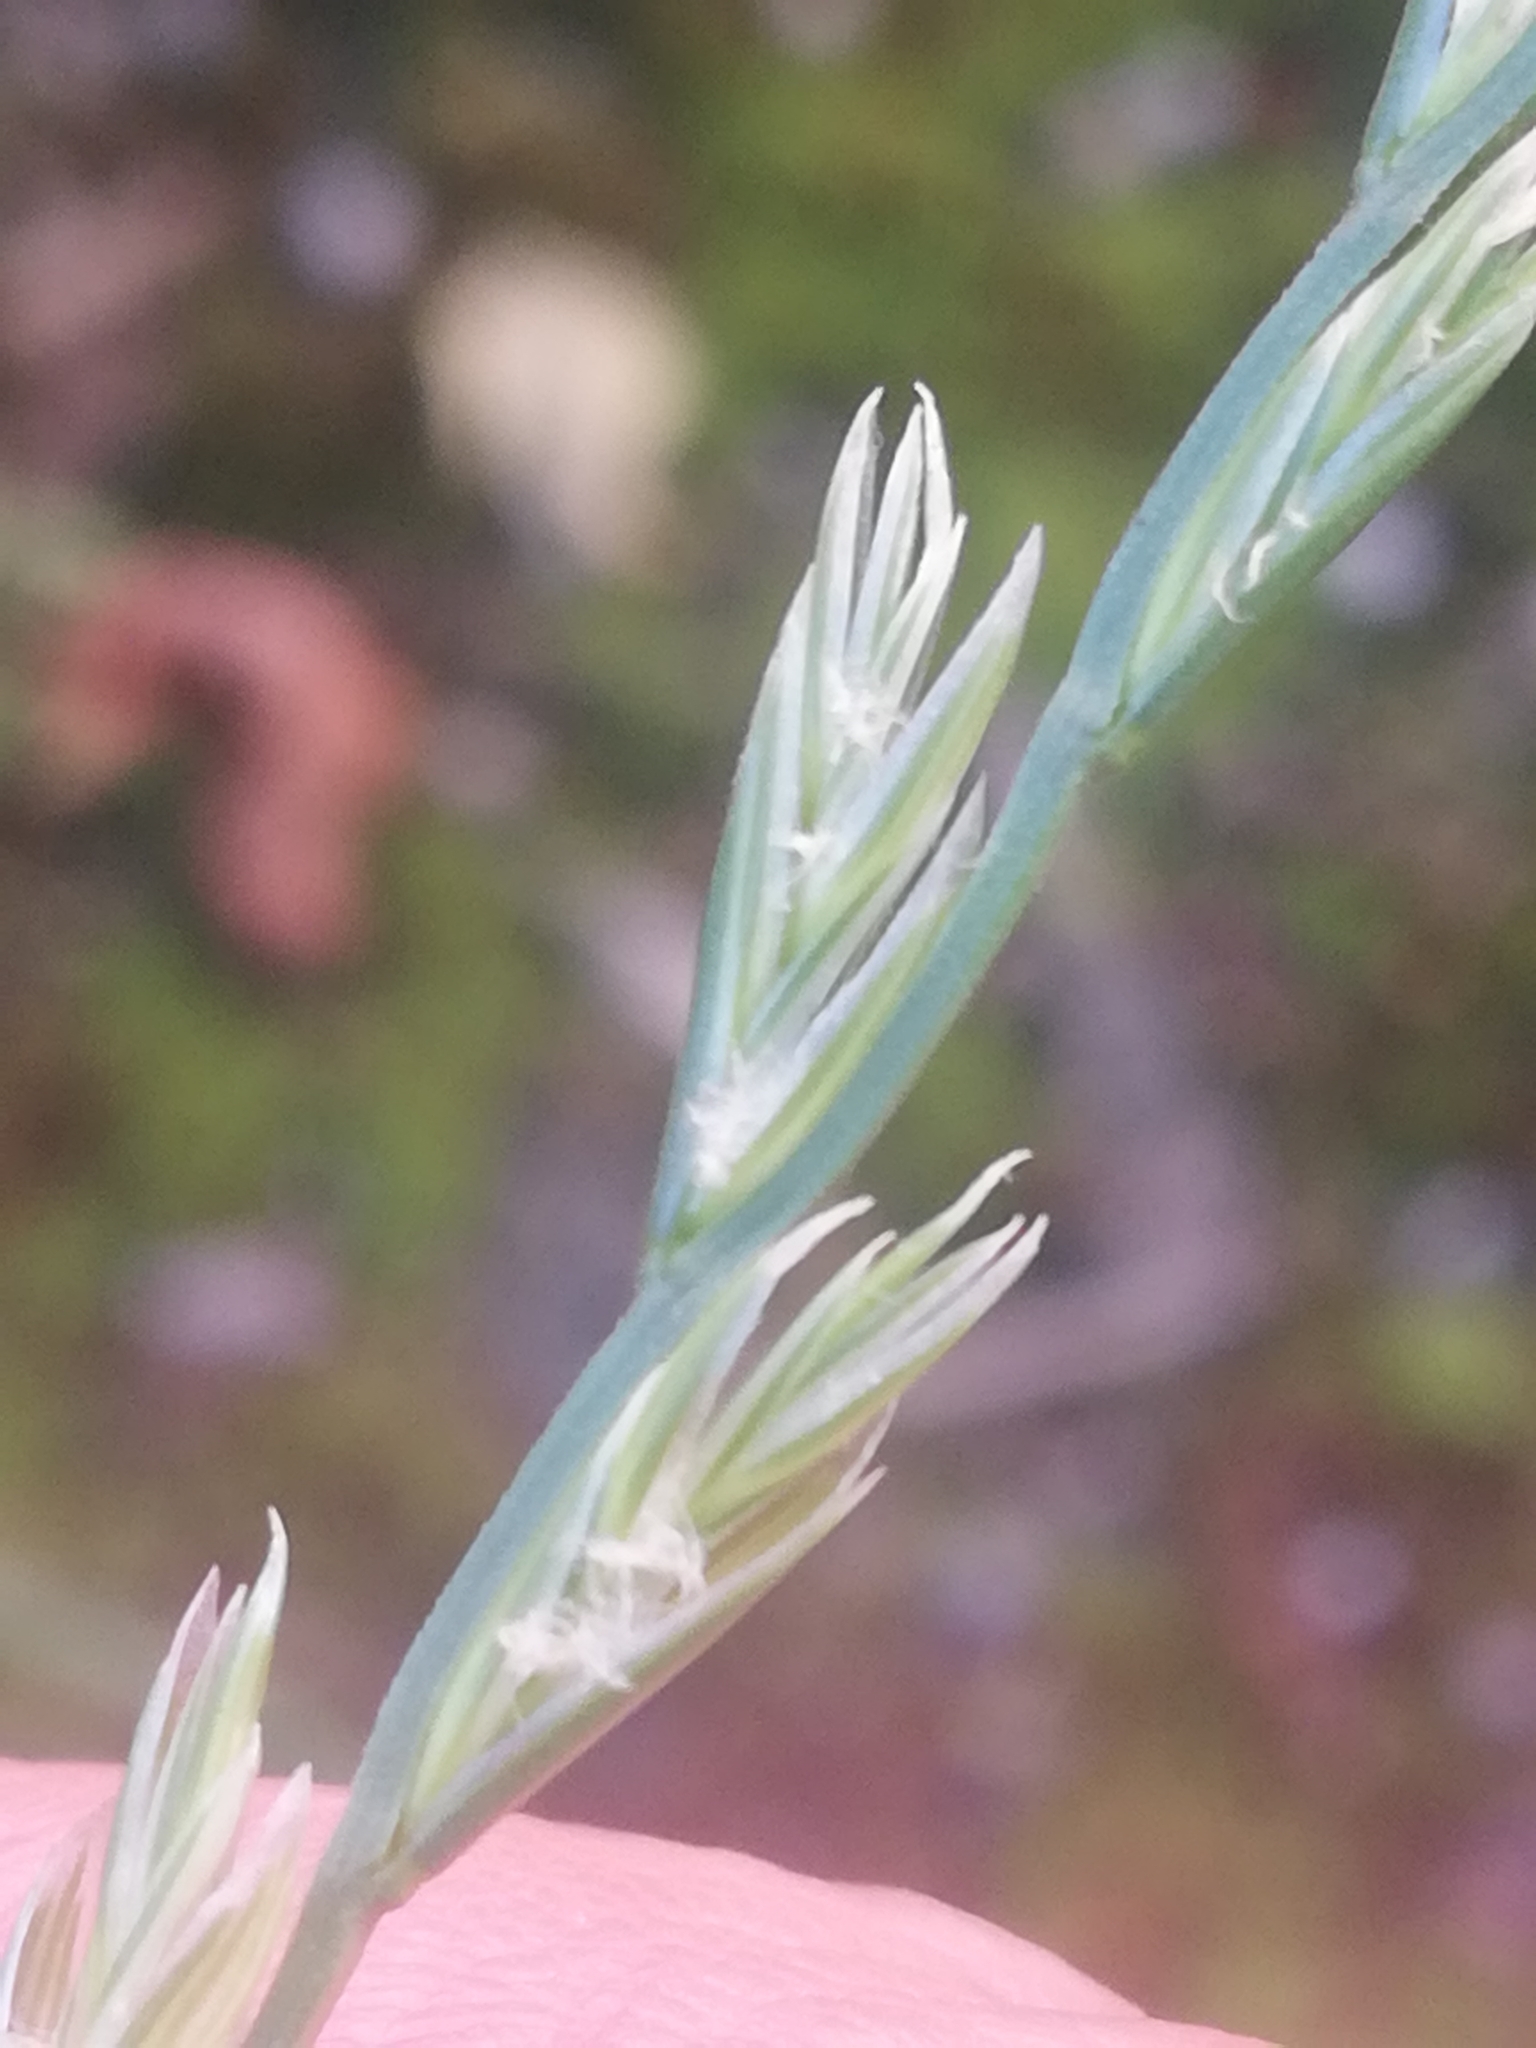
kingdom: Plantae
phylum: Tracheophyta
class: Liliopsida
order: Poales
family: Poaceae
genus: Lolium
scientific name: Lolium perenne
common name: Perennial ryegrass
